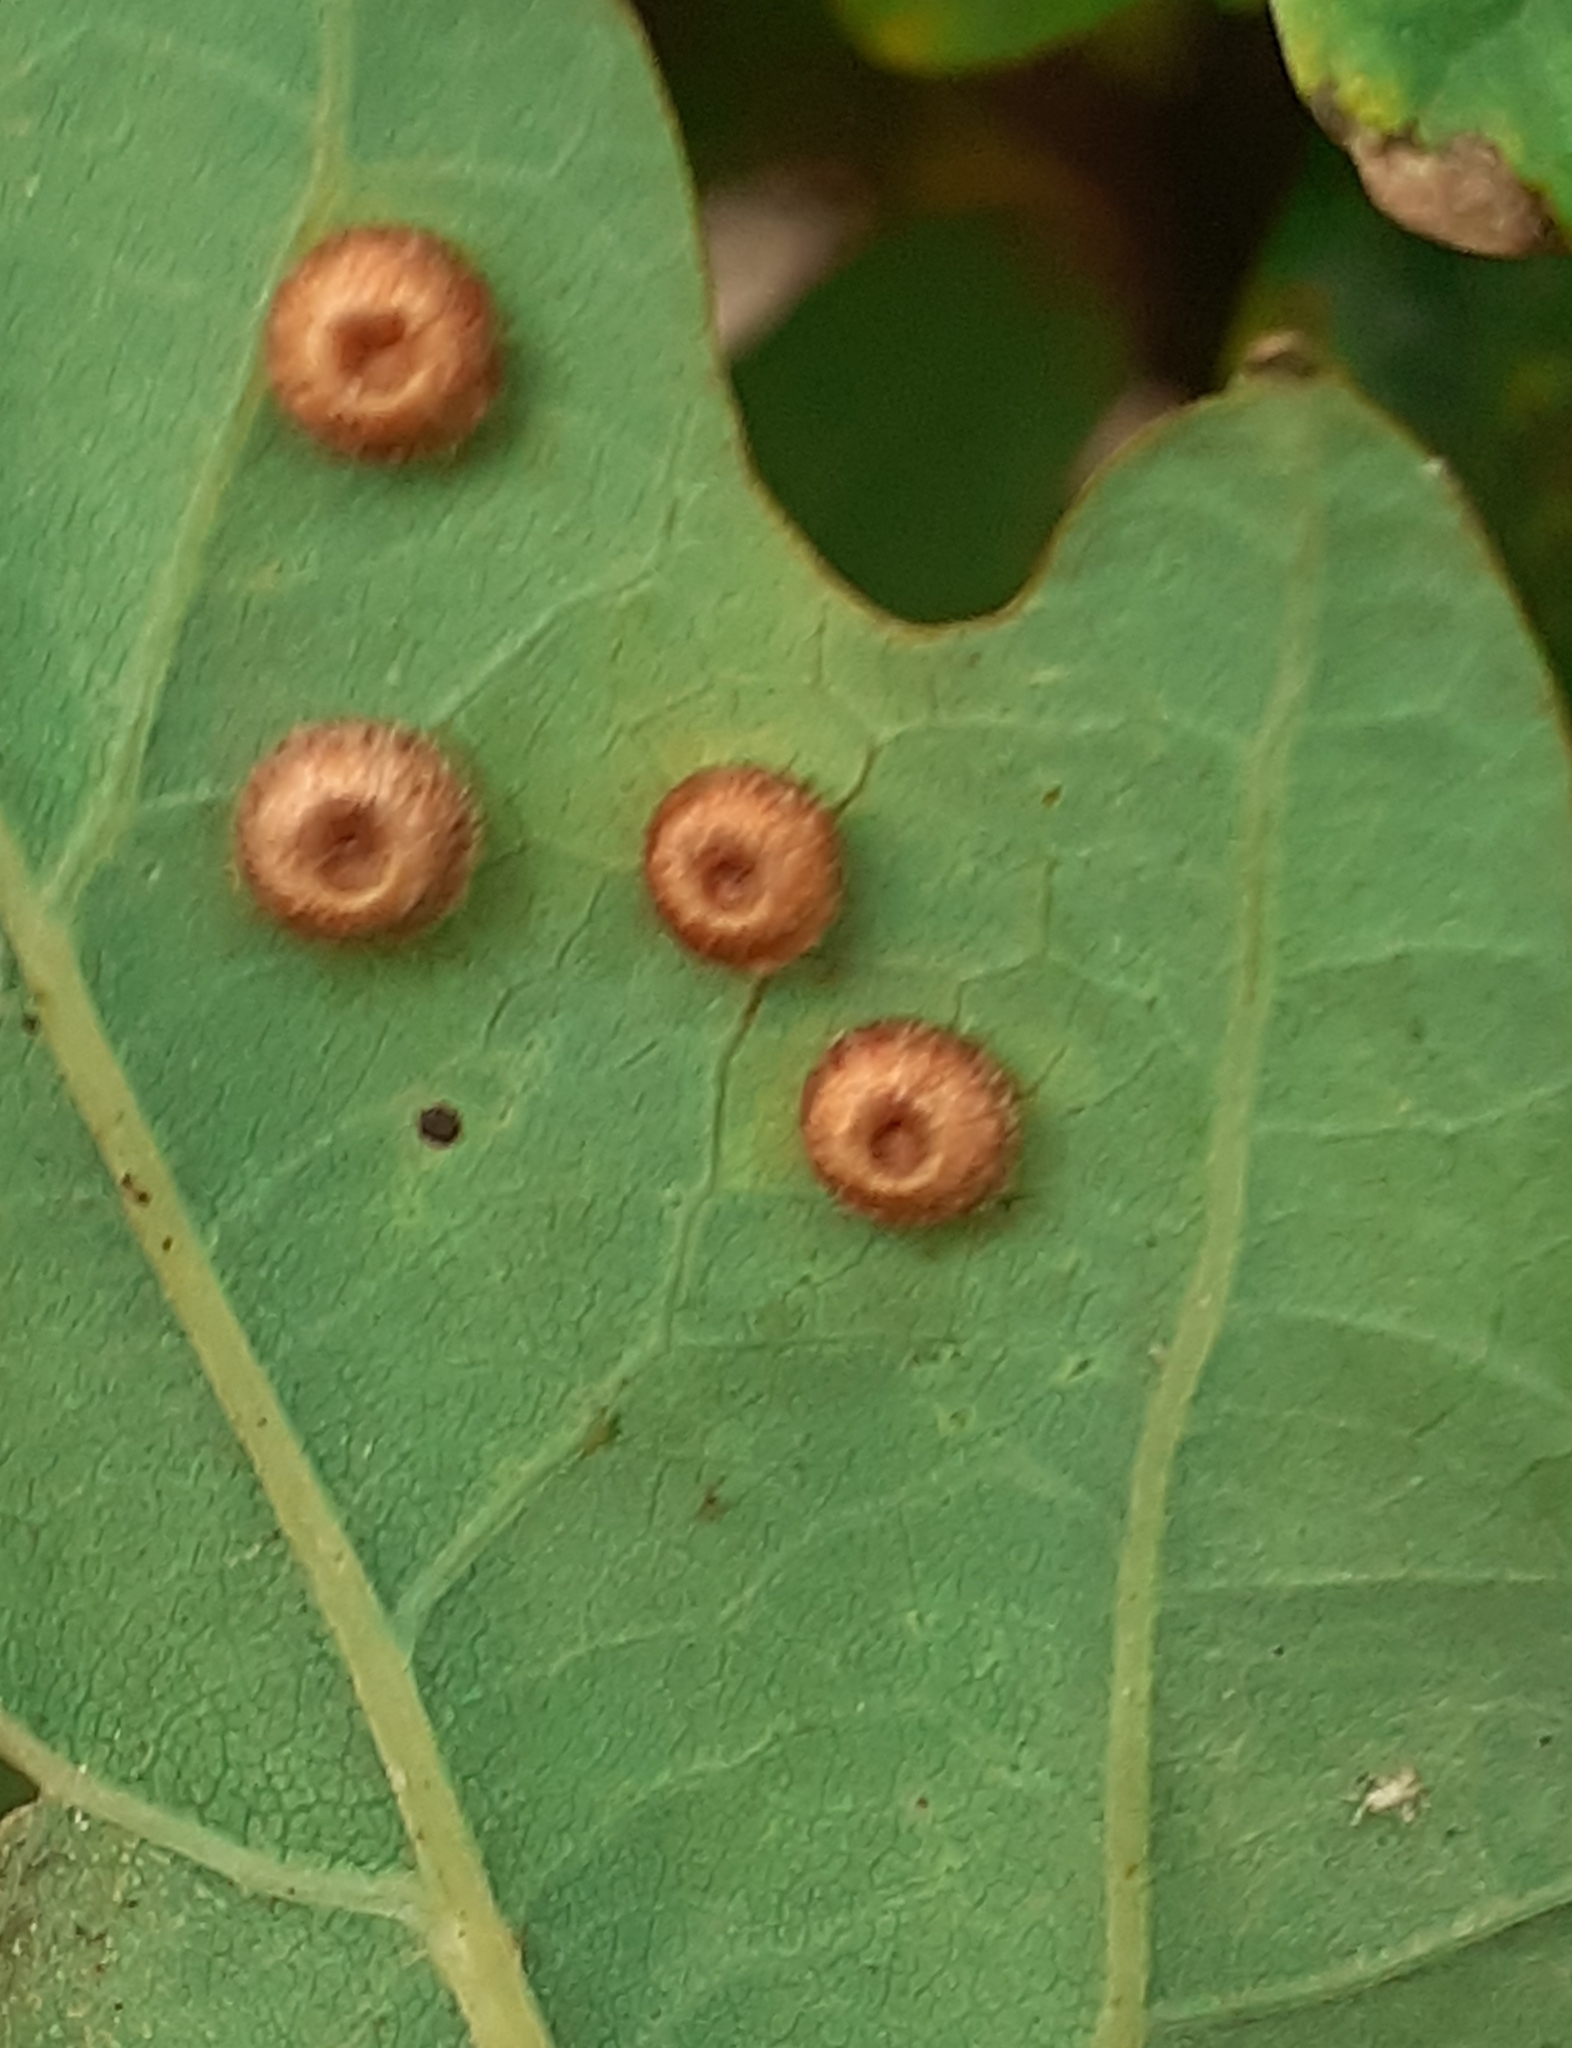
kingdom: Animalia
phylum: Arthropoda
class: Insecta
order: Hymenoptera
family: Cynipidae
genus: Neuroterus
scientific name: Neuroterus numismalis
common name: Silk-button spangle gall
